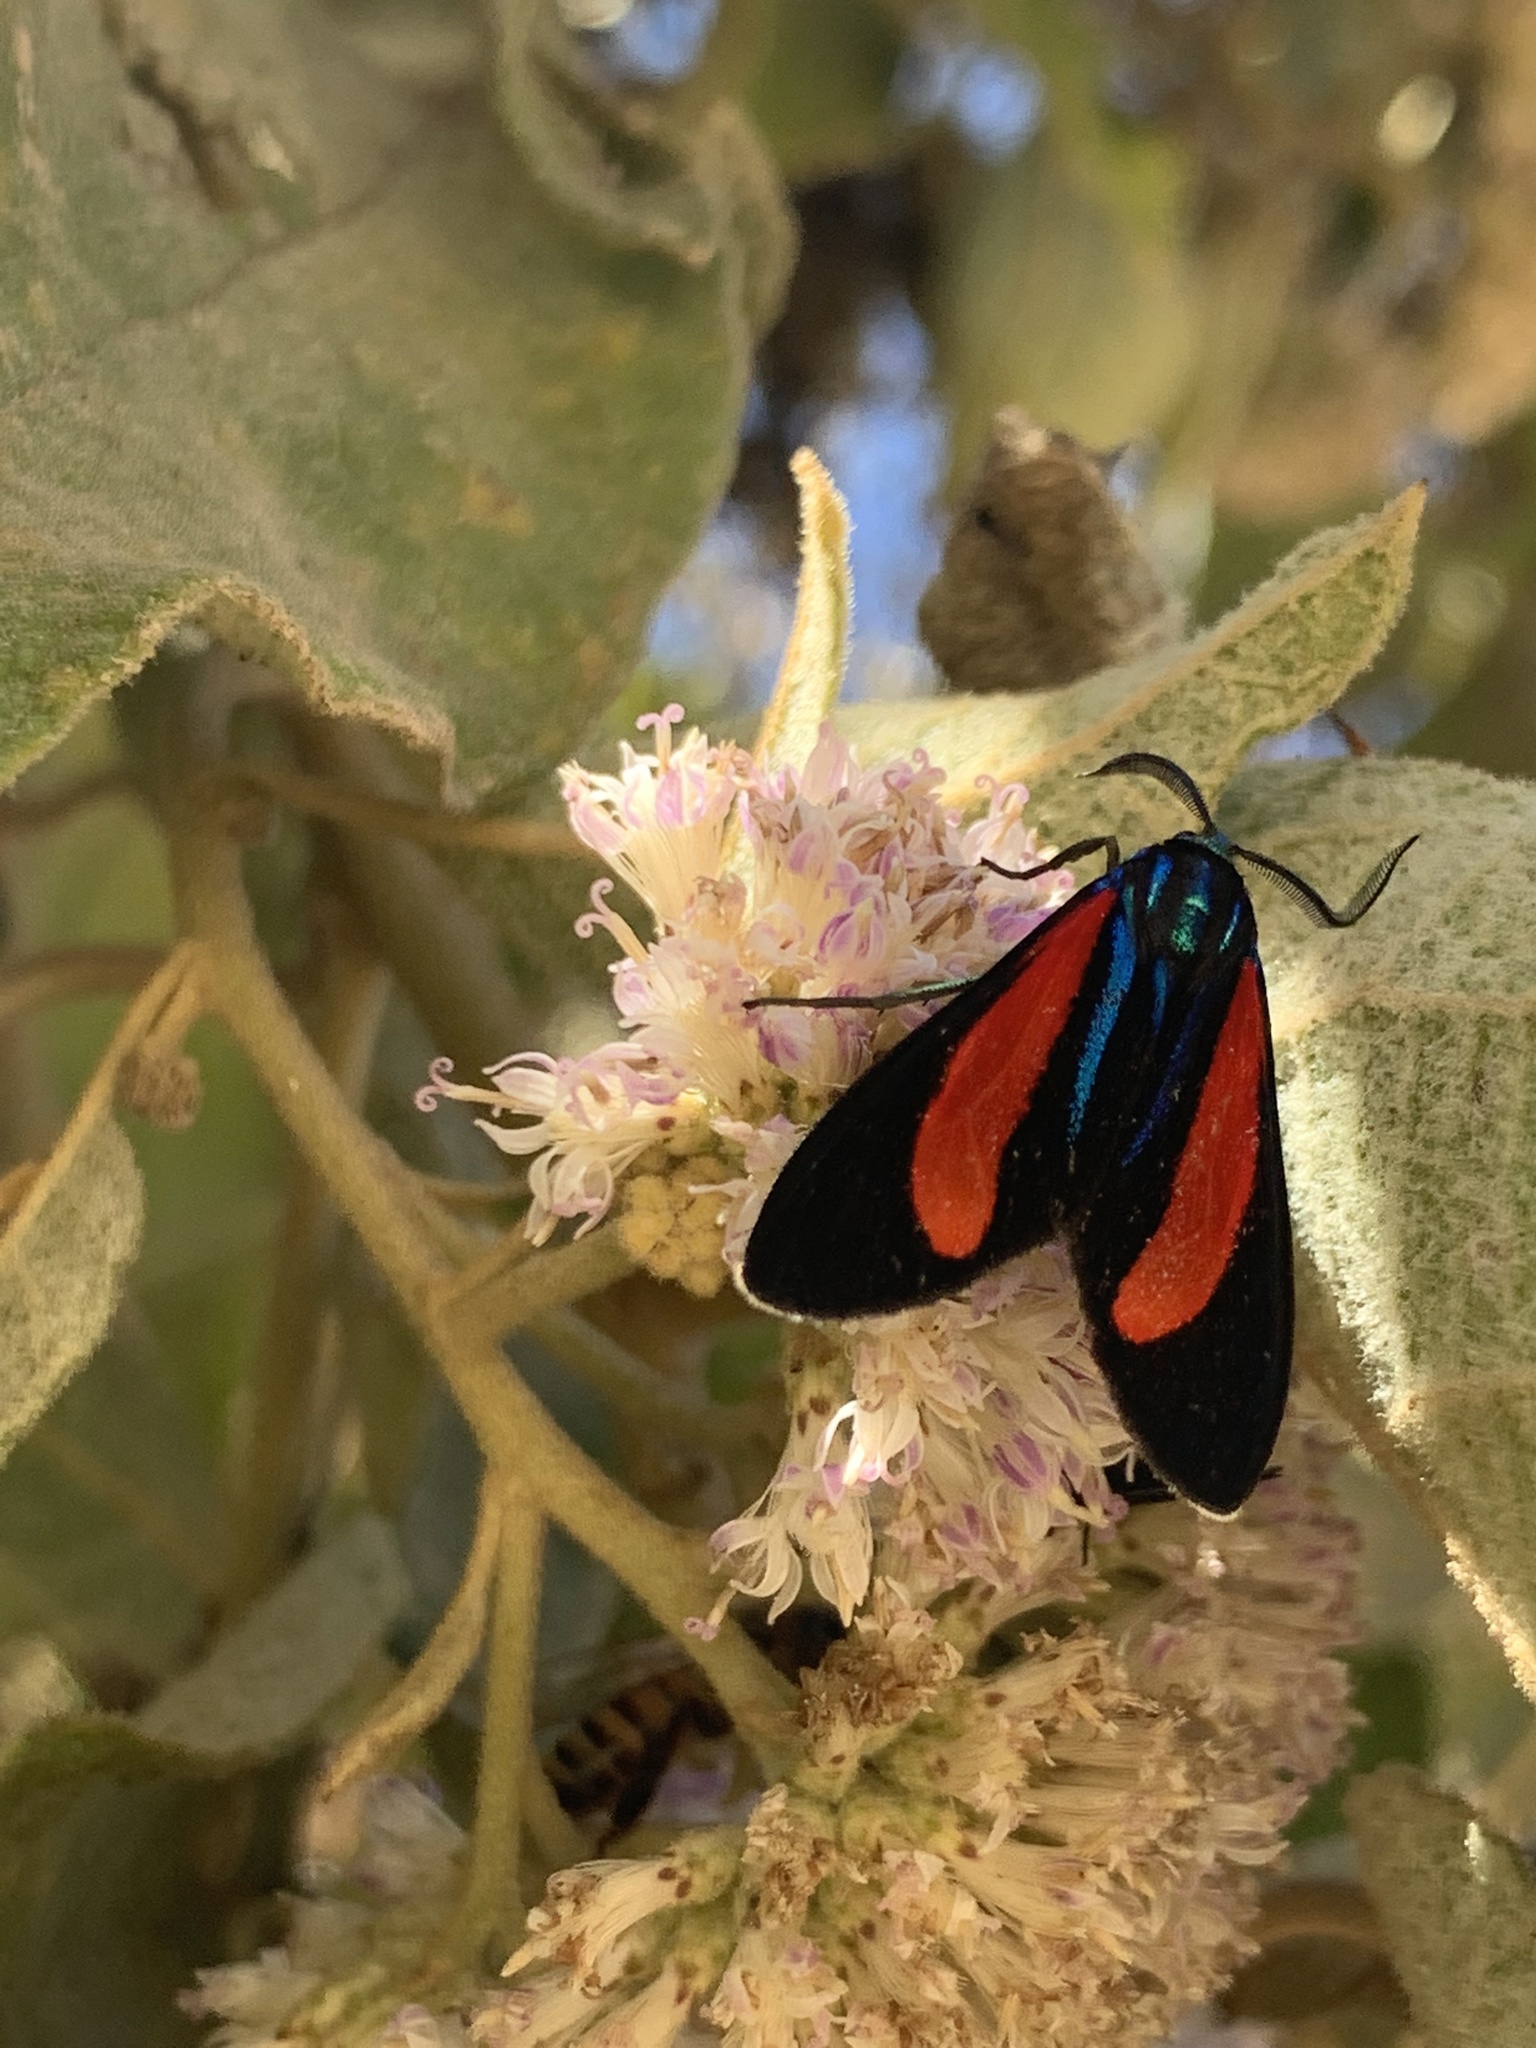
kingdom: Animalia
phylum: Arthropoda
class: Insecta
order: Lepidoptera
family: Erebidae
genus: Cyanopepla
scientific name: Cyanopepla bella
